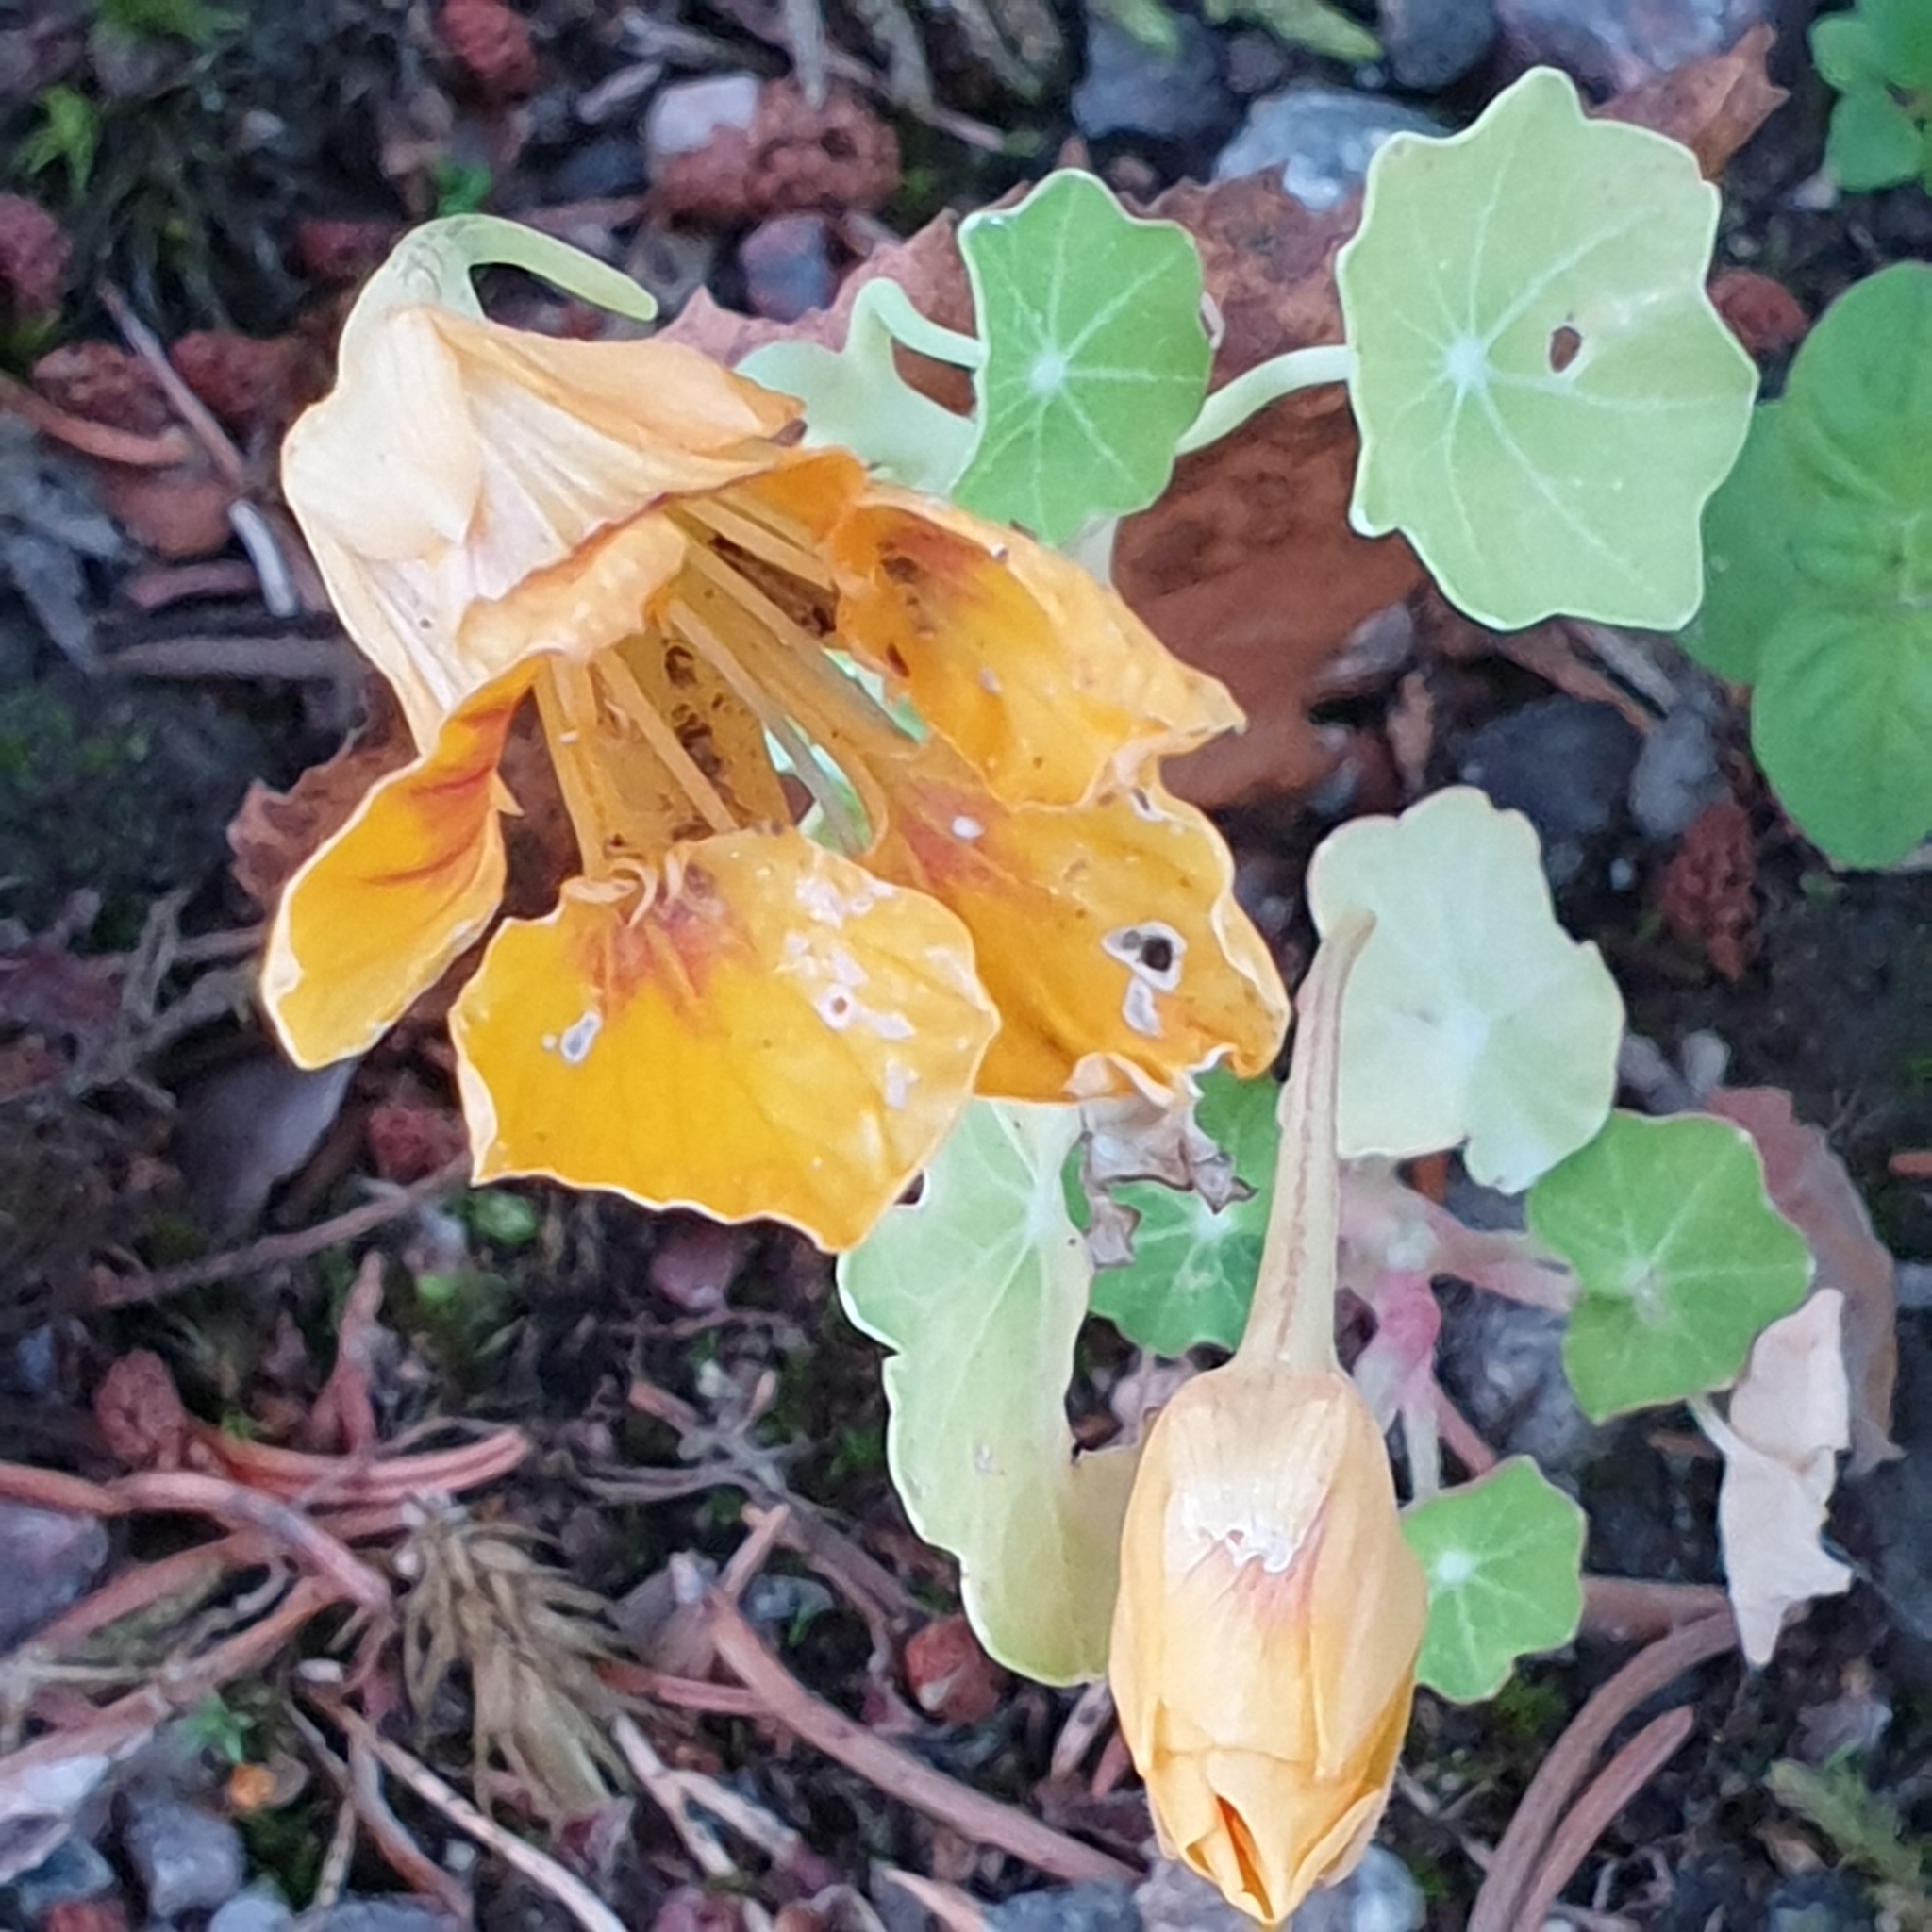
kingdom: Plantae
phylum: Tracheophyta
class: Magnoliopsida
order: Brassicales
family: Tropaeolaceae
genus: Tropaeolum
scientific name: Tropaeolum majus
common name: Nasturtium
